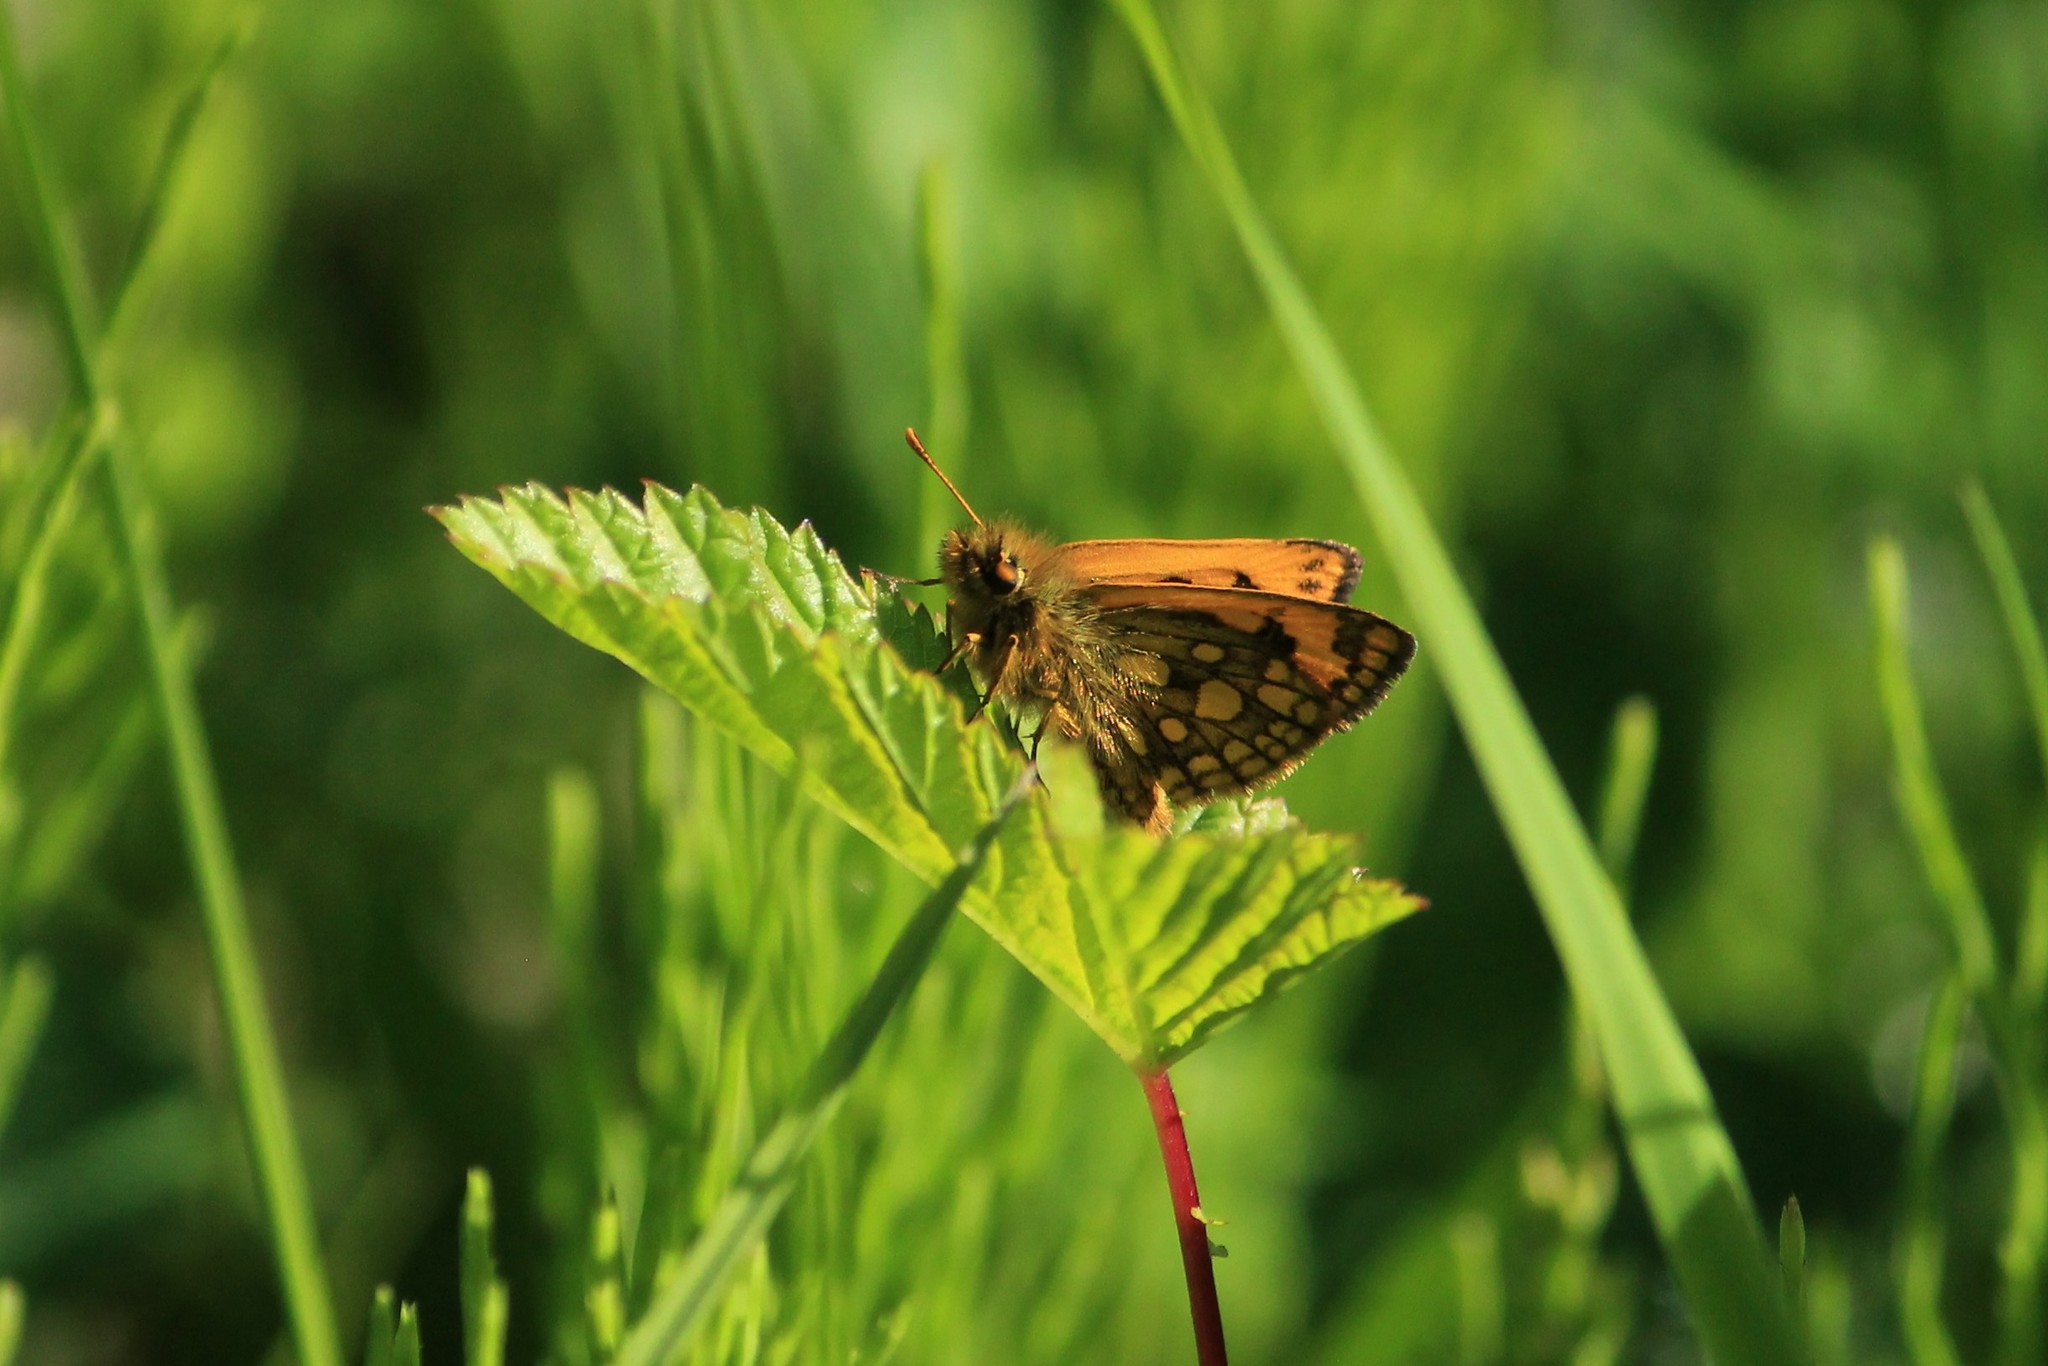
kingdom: Animalia
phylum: Arthropoda
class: Insecta
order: Lepidoptera
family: Hesperiidae
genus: Carterocephalus
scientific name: Carterocephalus silvicola
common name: Northern chequered skipper
